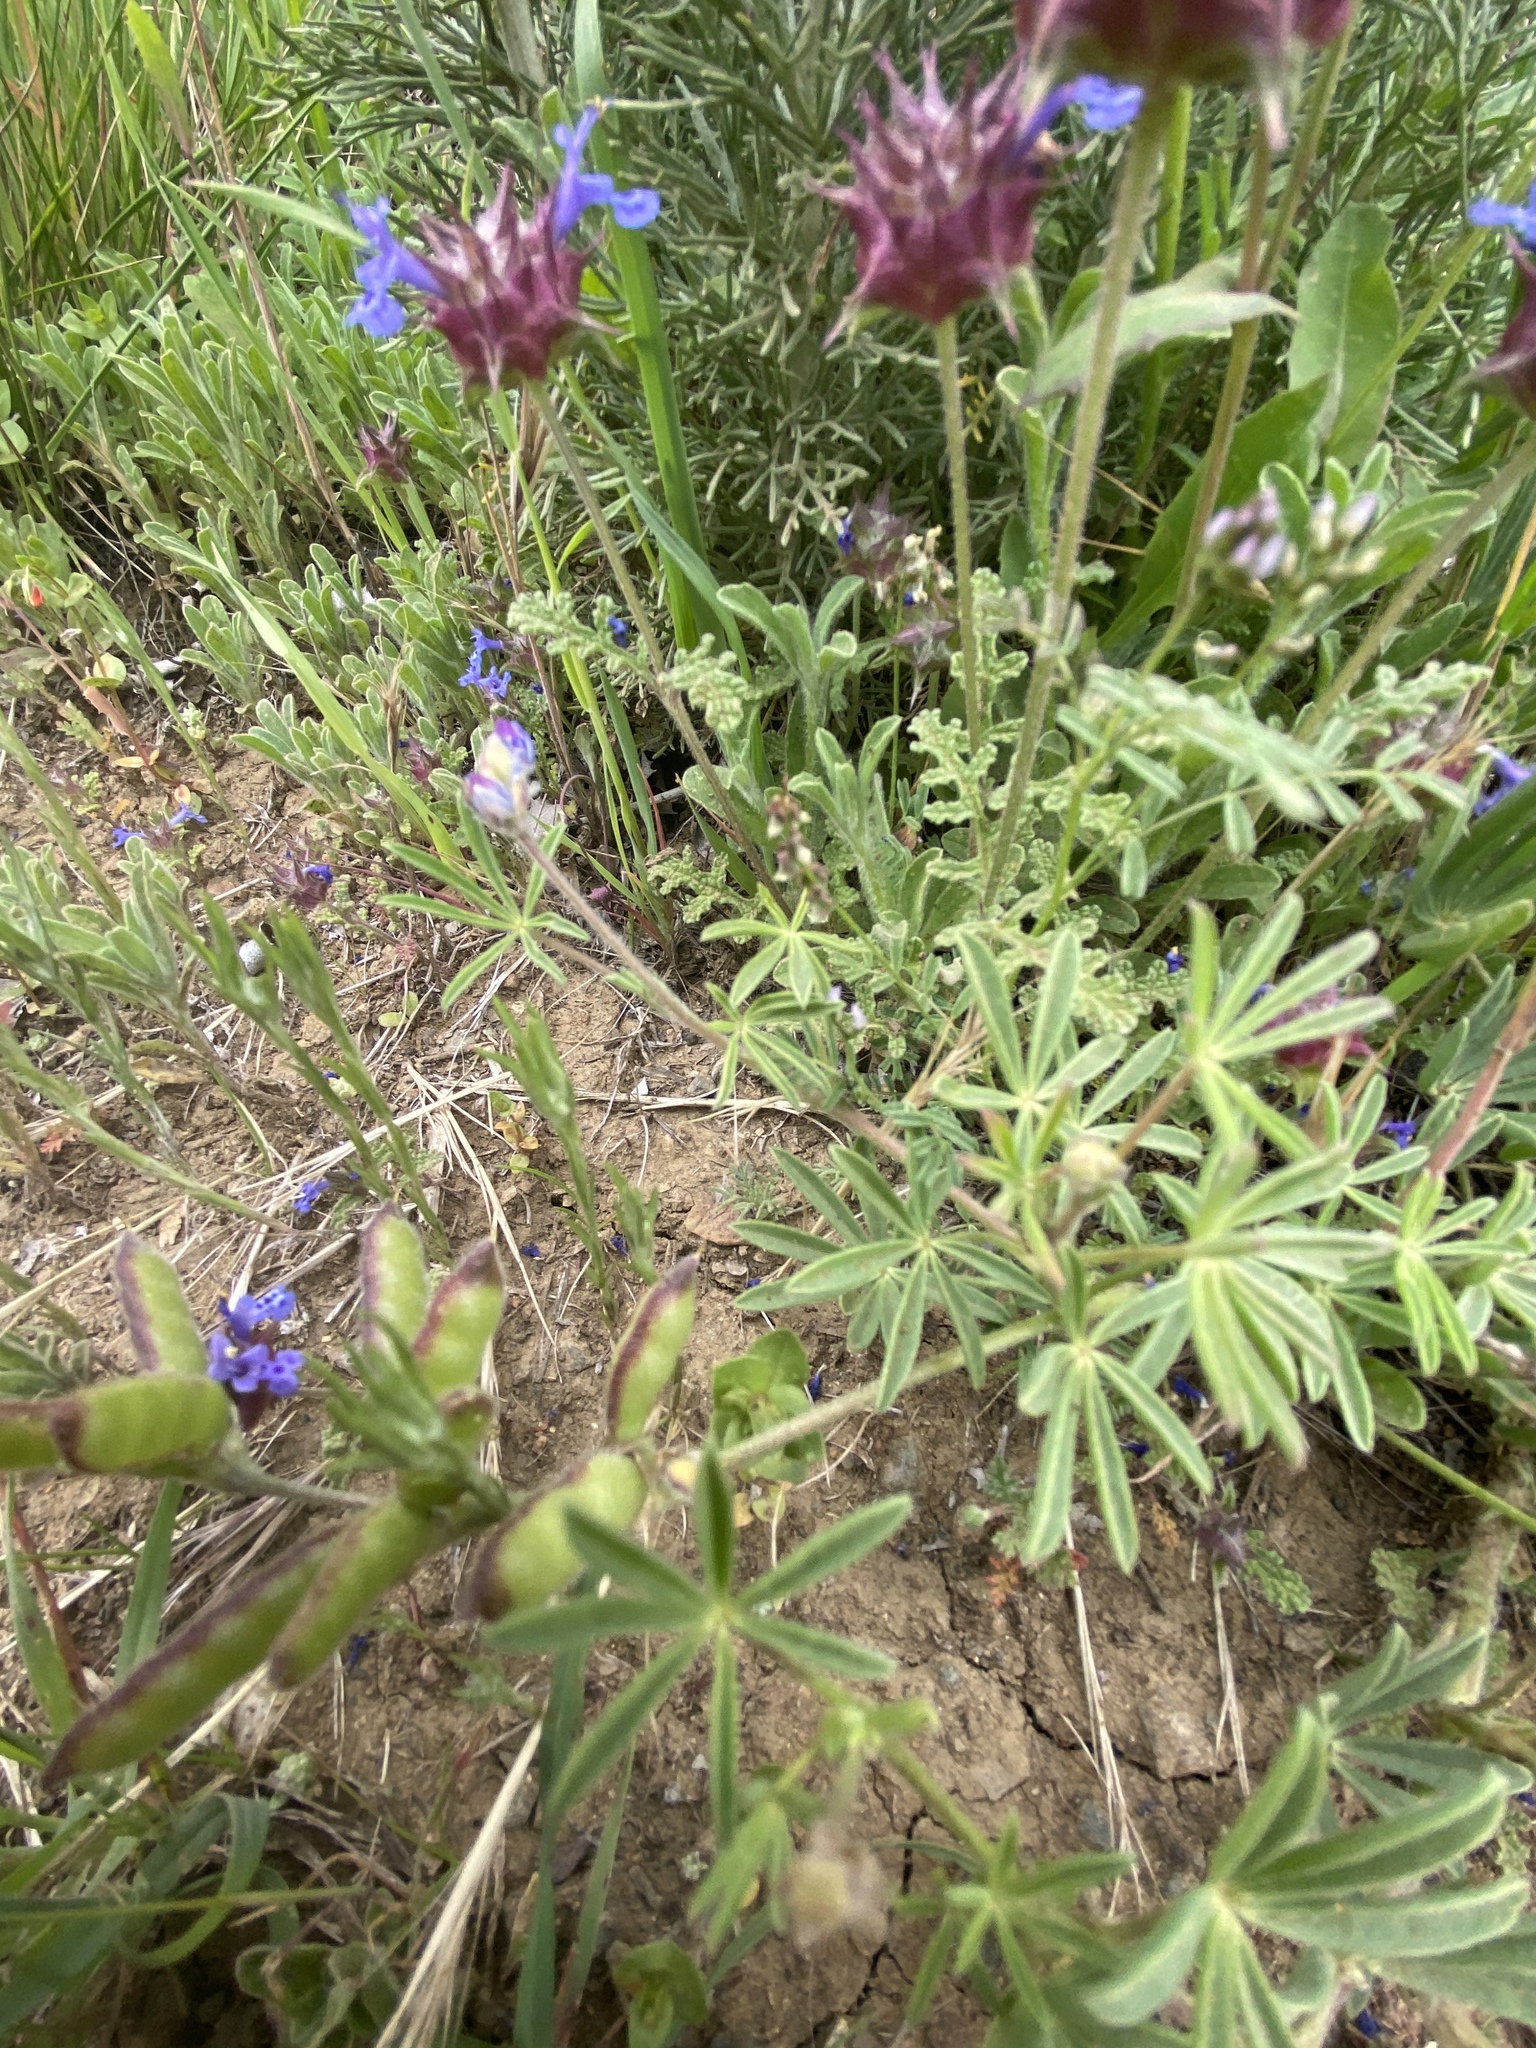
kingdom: Plantae
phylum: Tracheophyta
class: Magnoliopsida
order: Lamiales
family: Lamiaceae
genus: Salvia
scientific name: Salvia columbariae
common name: Chia
